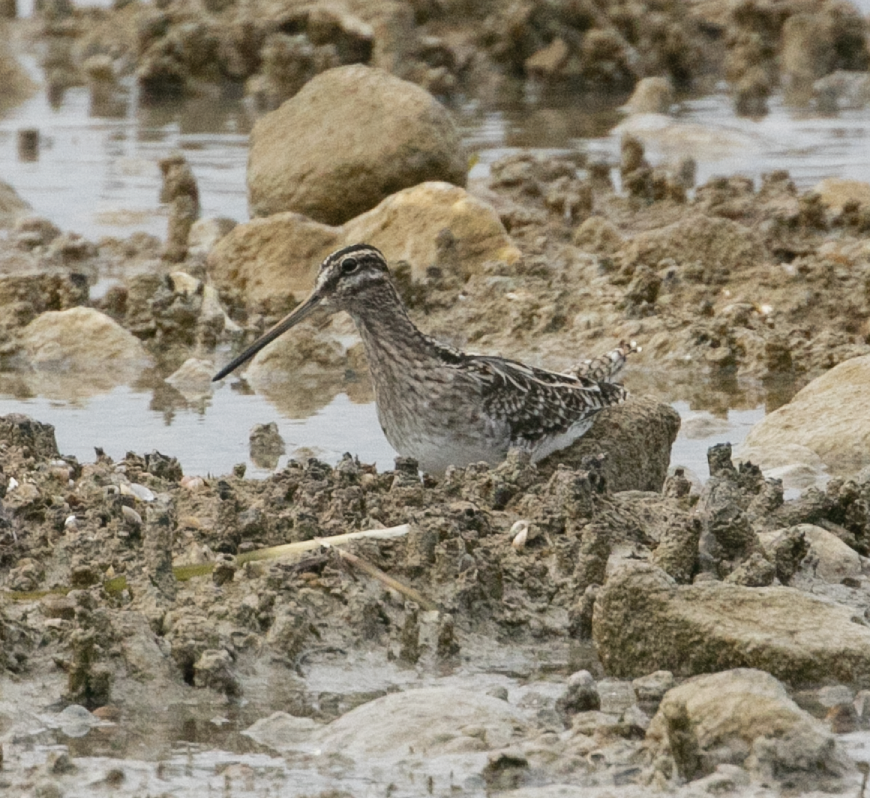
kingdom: Animalia
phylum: Chordata
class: Aves
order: Charadriiformes
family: Scolopacidae
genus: Gallinago
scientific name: Gallinago gallinago
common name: Common snipe
